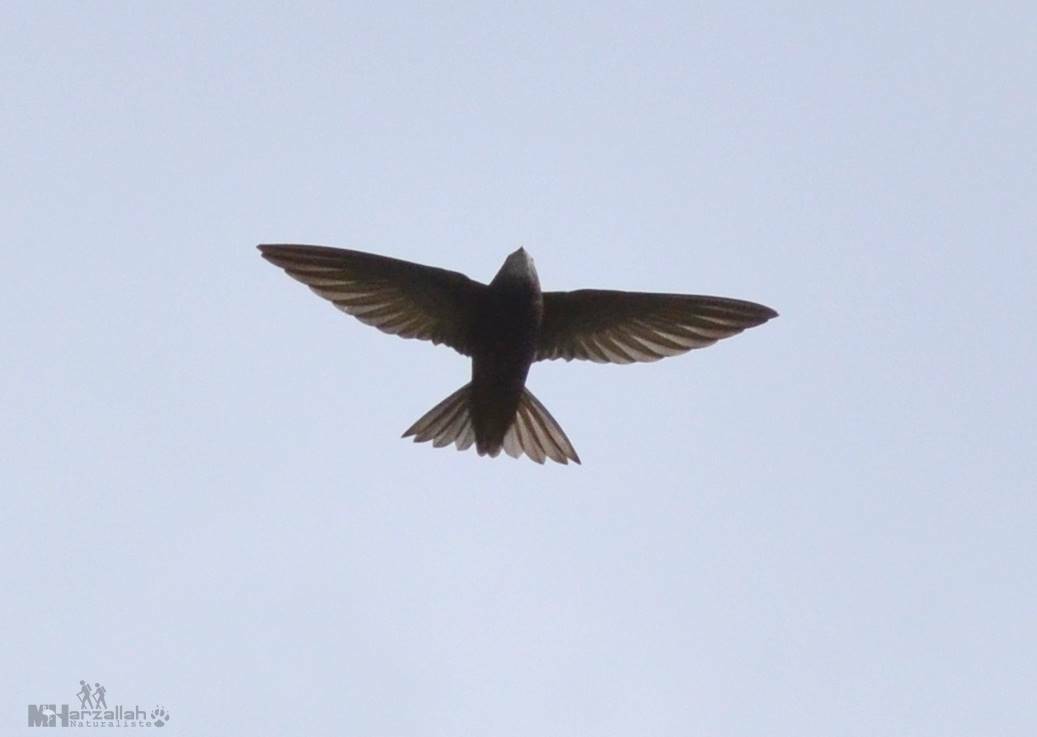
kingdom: Animalia
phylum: Chordata
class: Aves
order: Apodiformes
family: Apodidae
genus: Apus
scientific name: Apus apus
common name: Common swift
